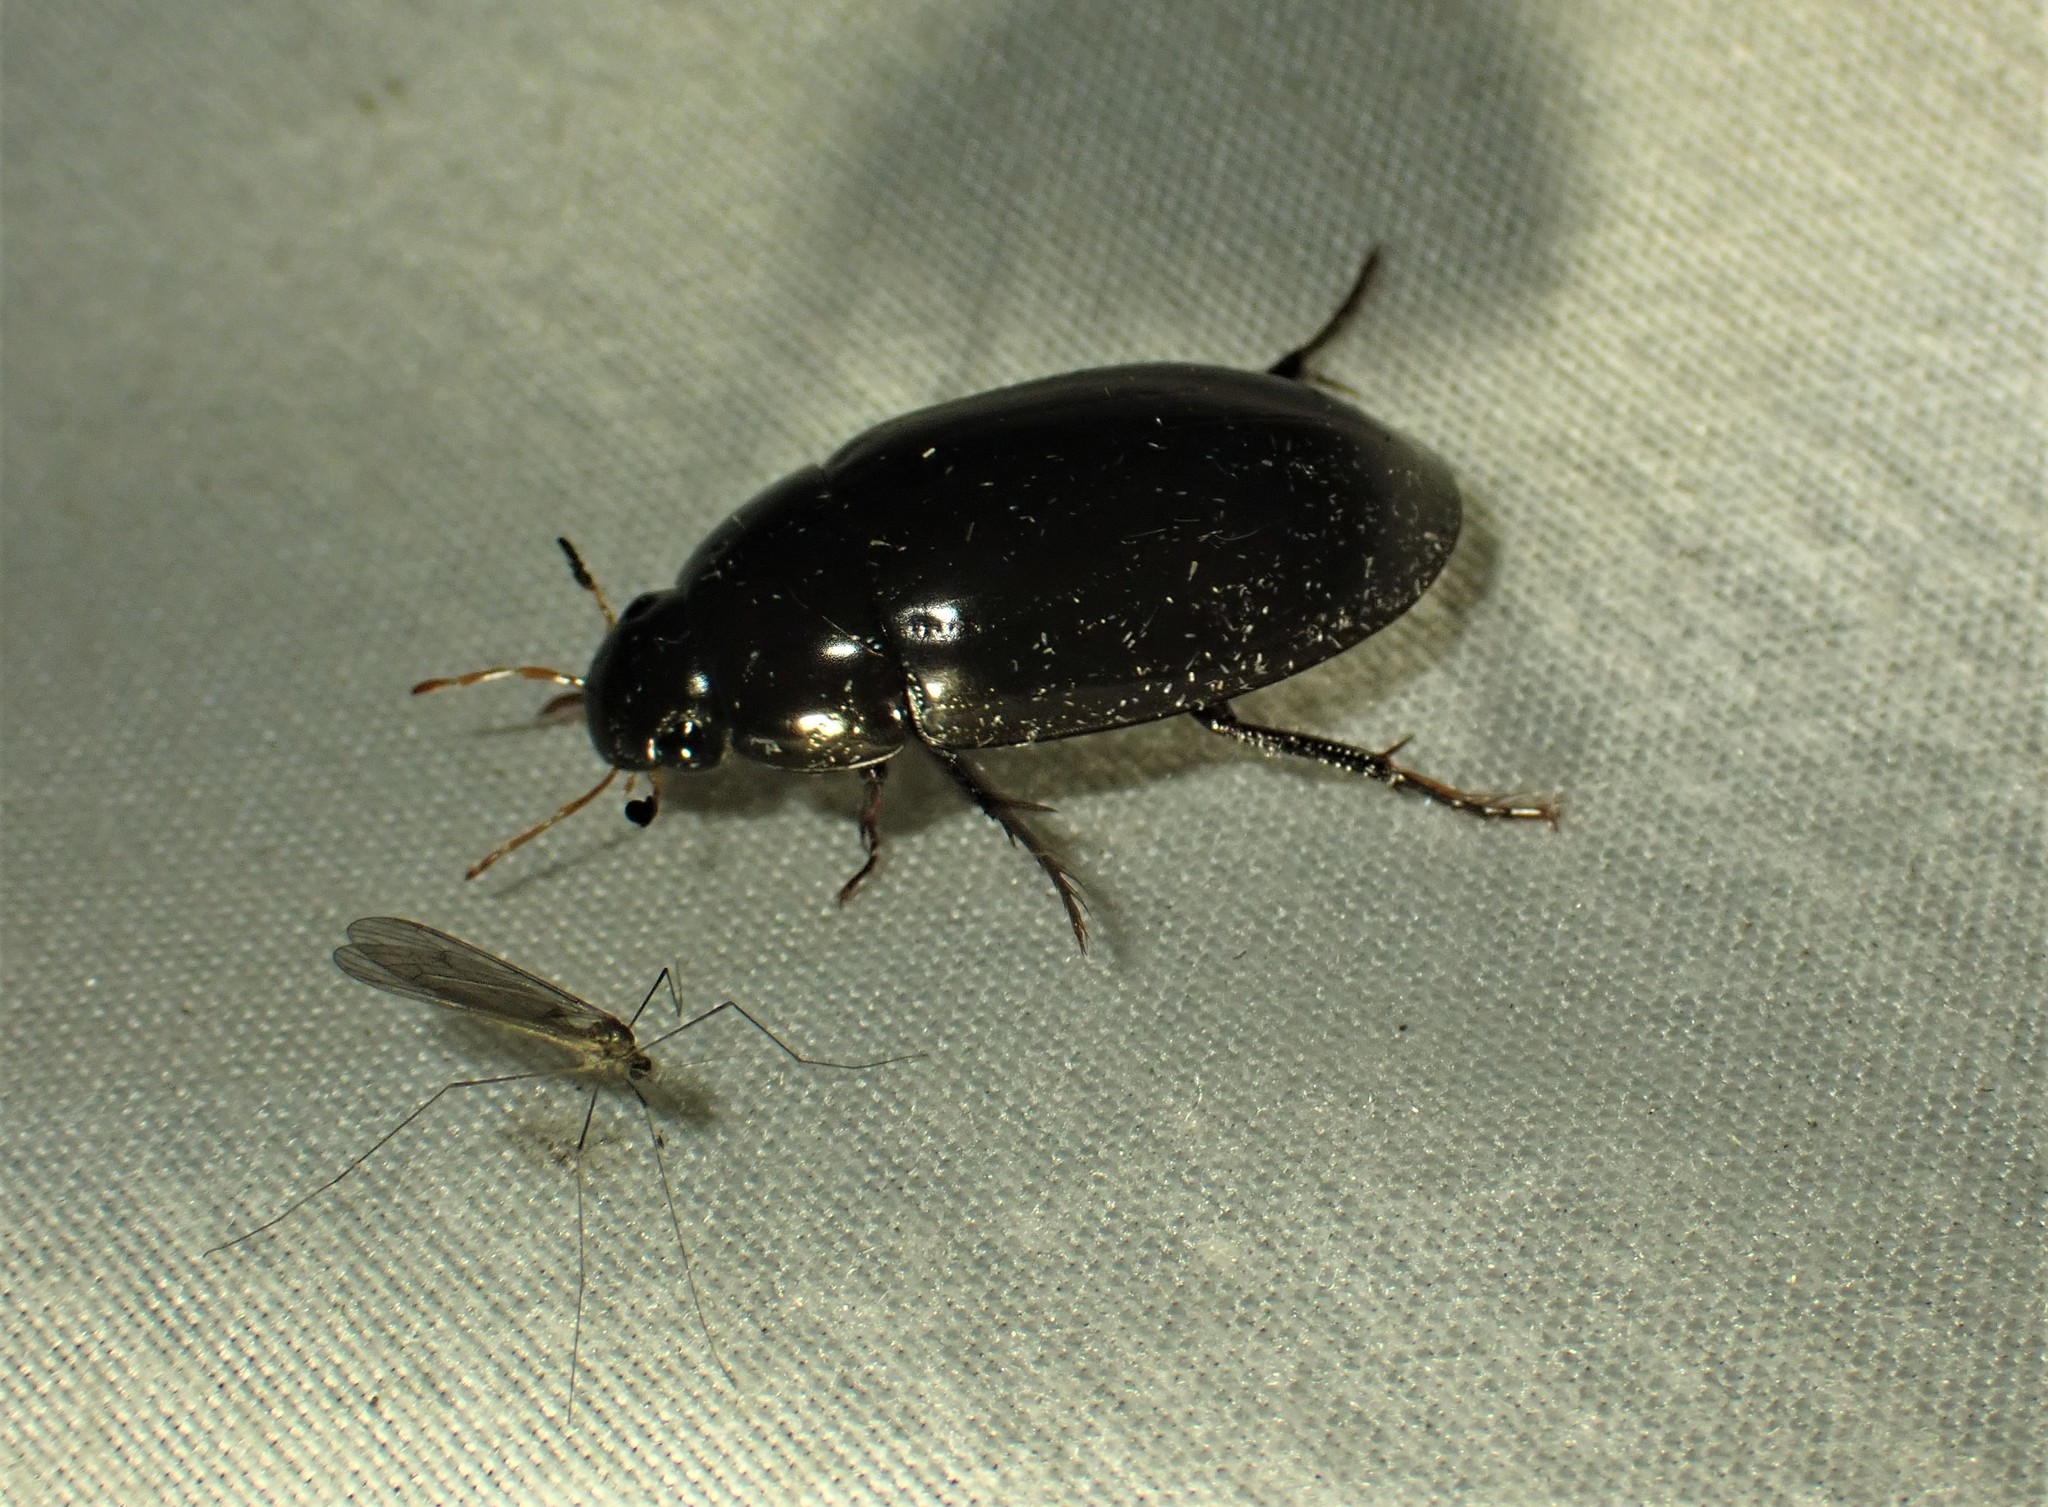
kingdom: Animalia
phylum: Arthropoda
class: Insecta
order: Coleoptera
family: Hydrophilidae
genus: Hydrochara
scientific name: Hydrochara
